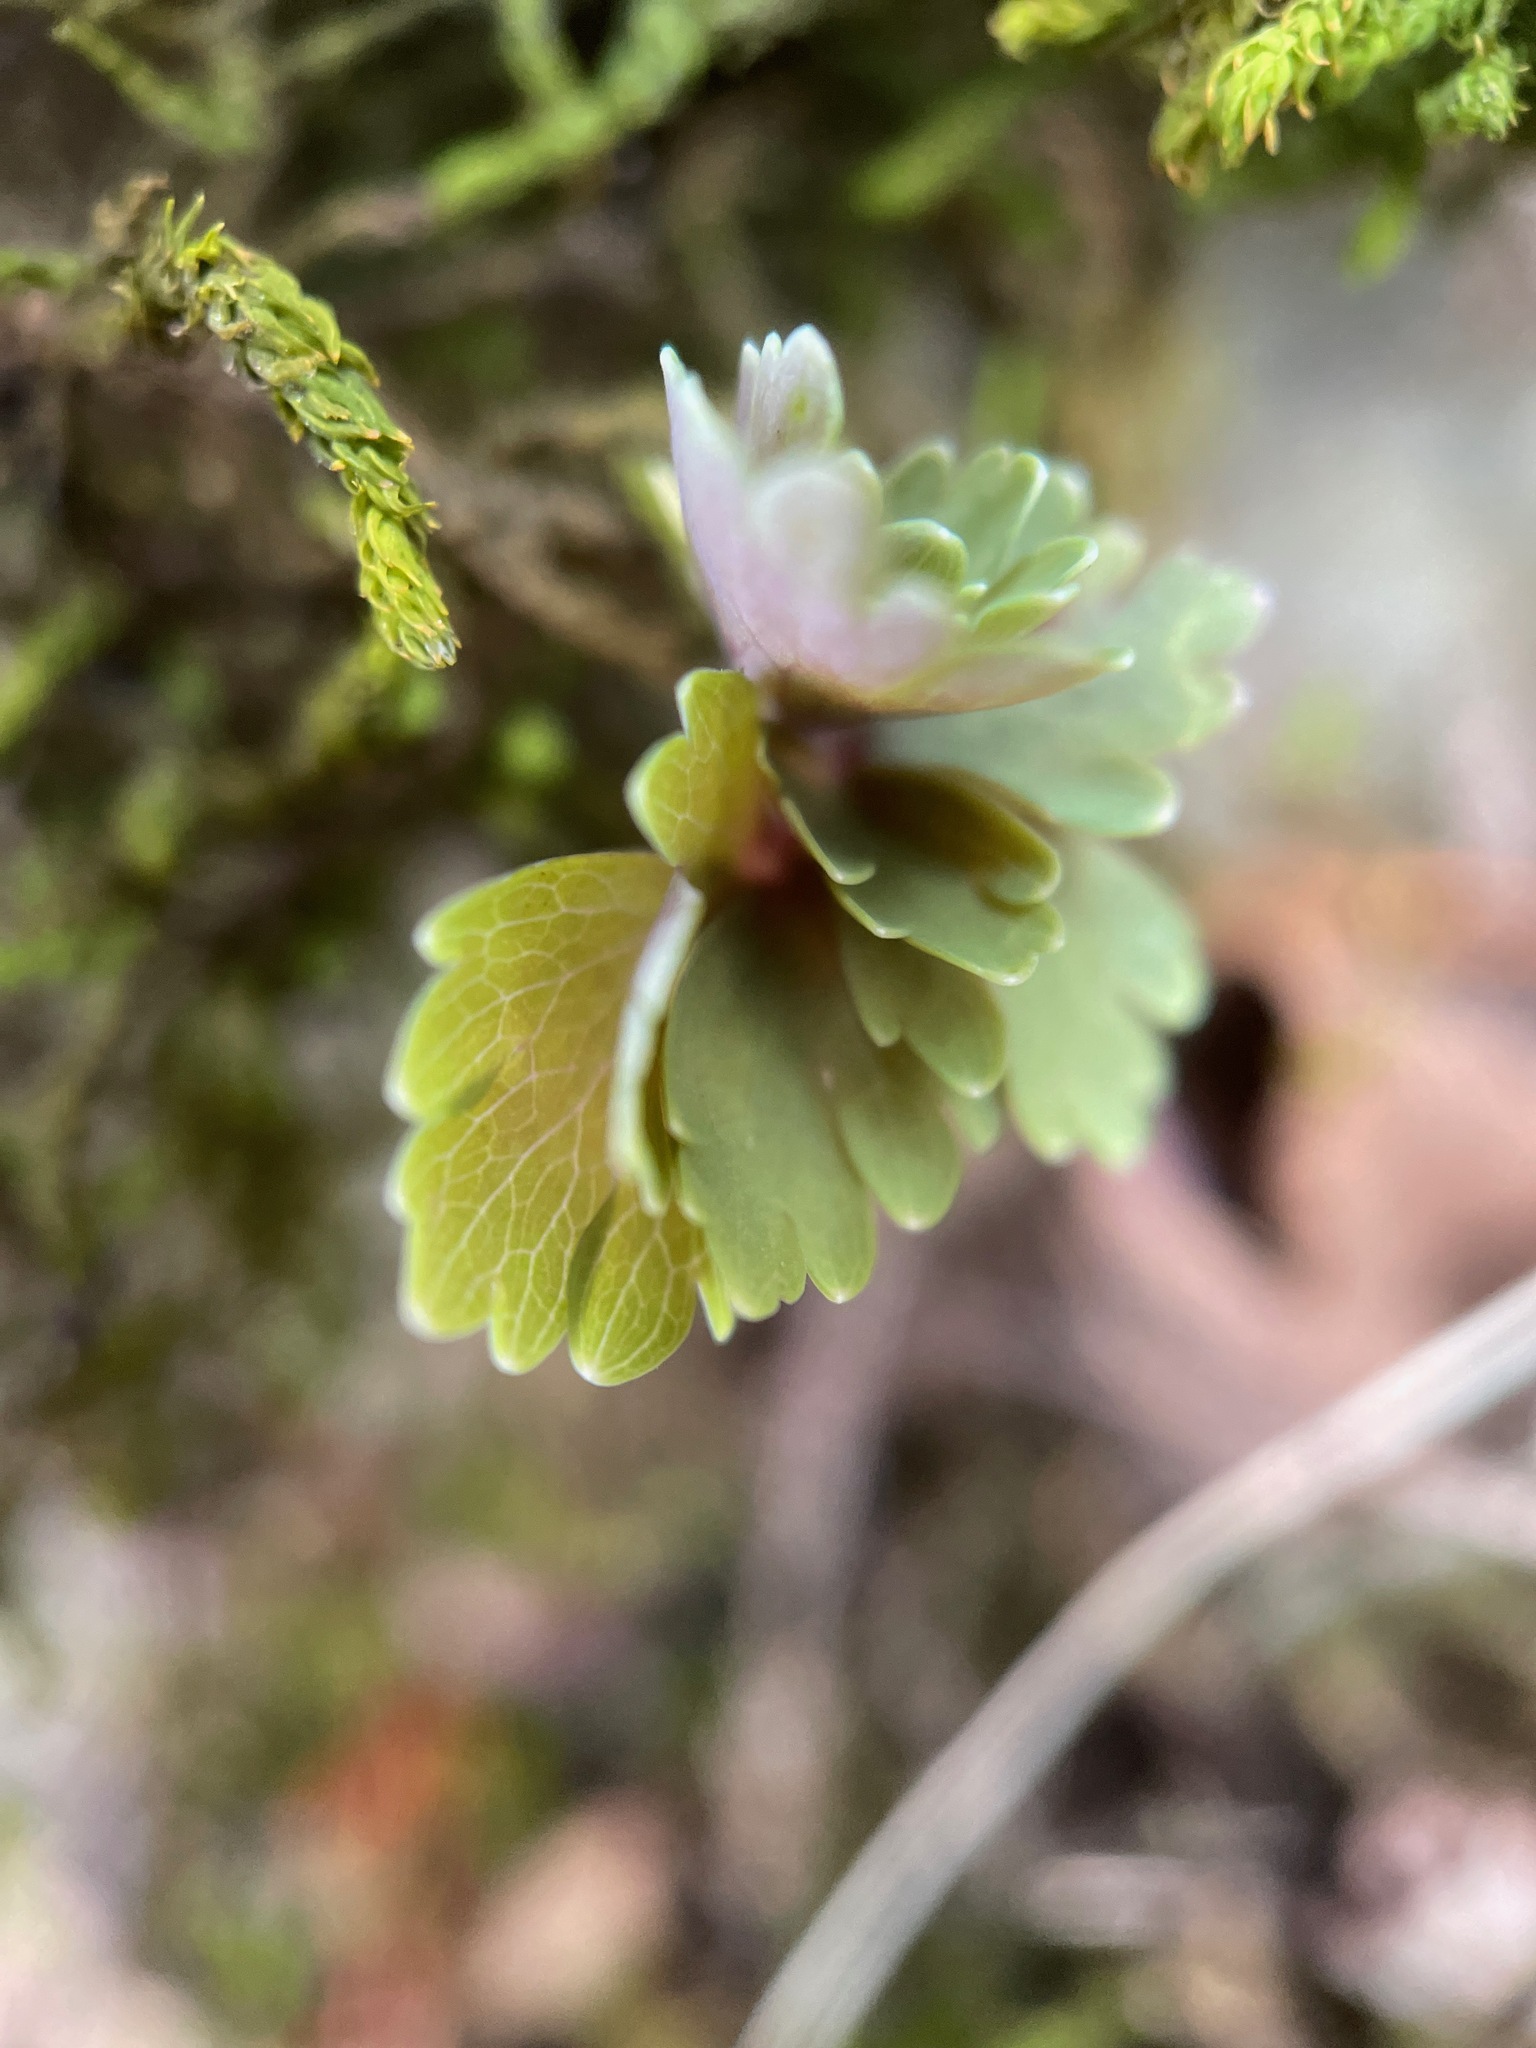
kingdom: Plantae
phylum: Tracheophyta
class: Magnoliopsida
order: Ranunculales
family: Ranunculaceae
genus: Aquilegia
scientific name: Aquilegia canadensis
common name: American columbine
